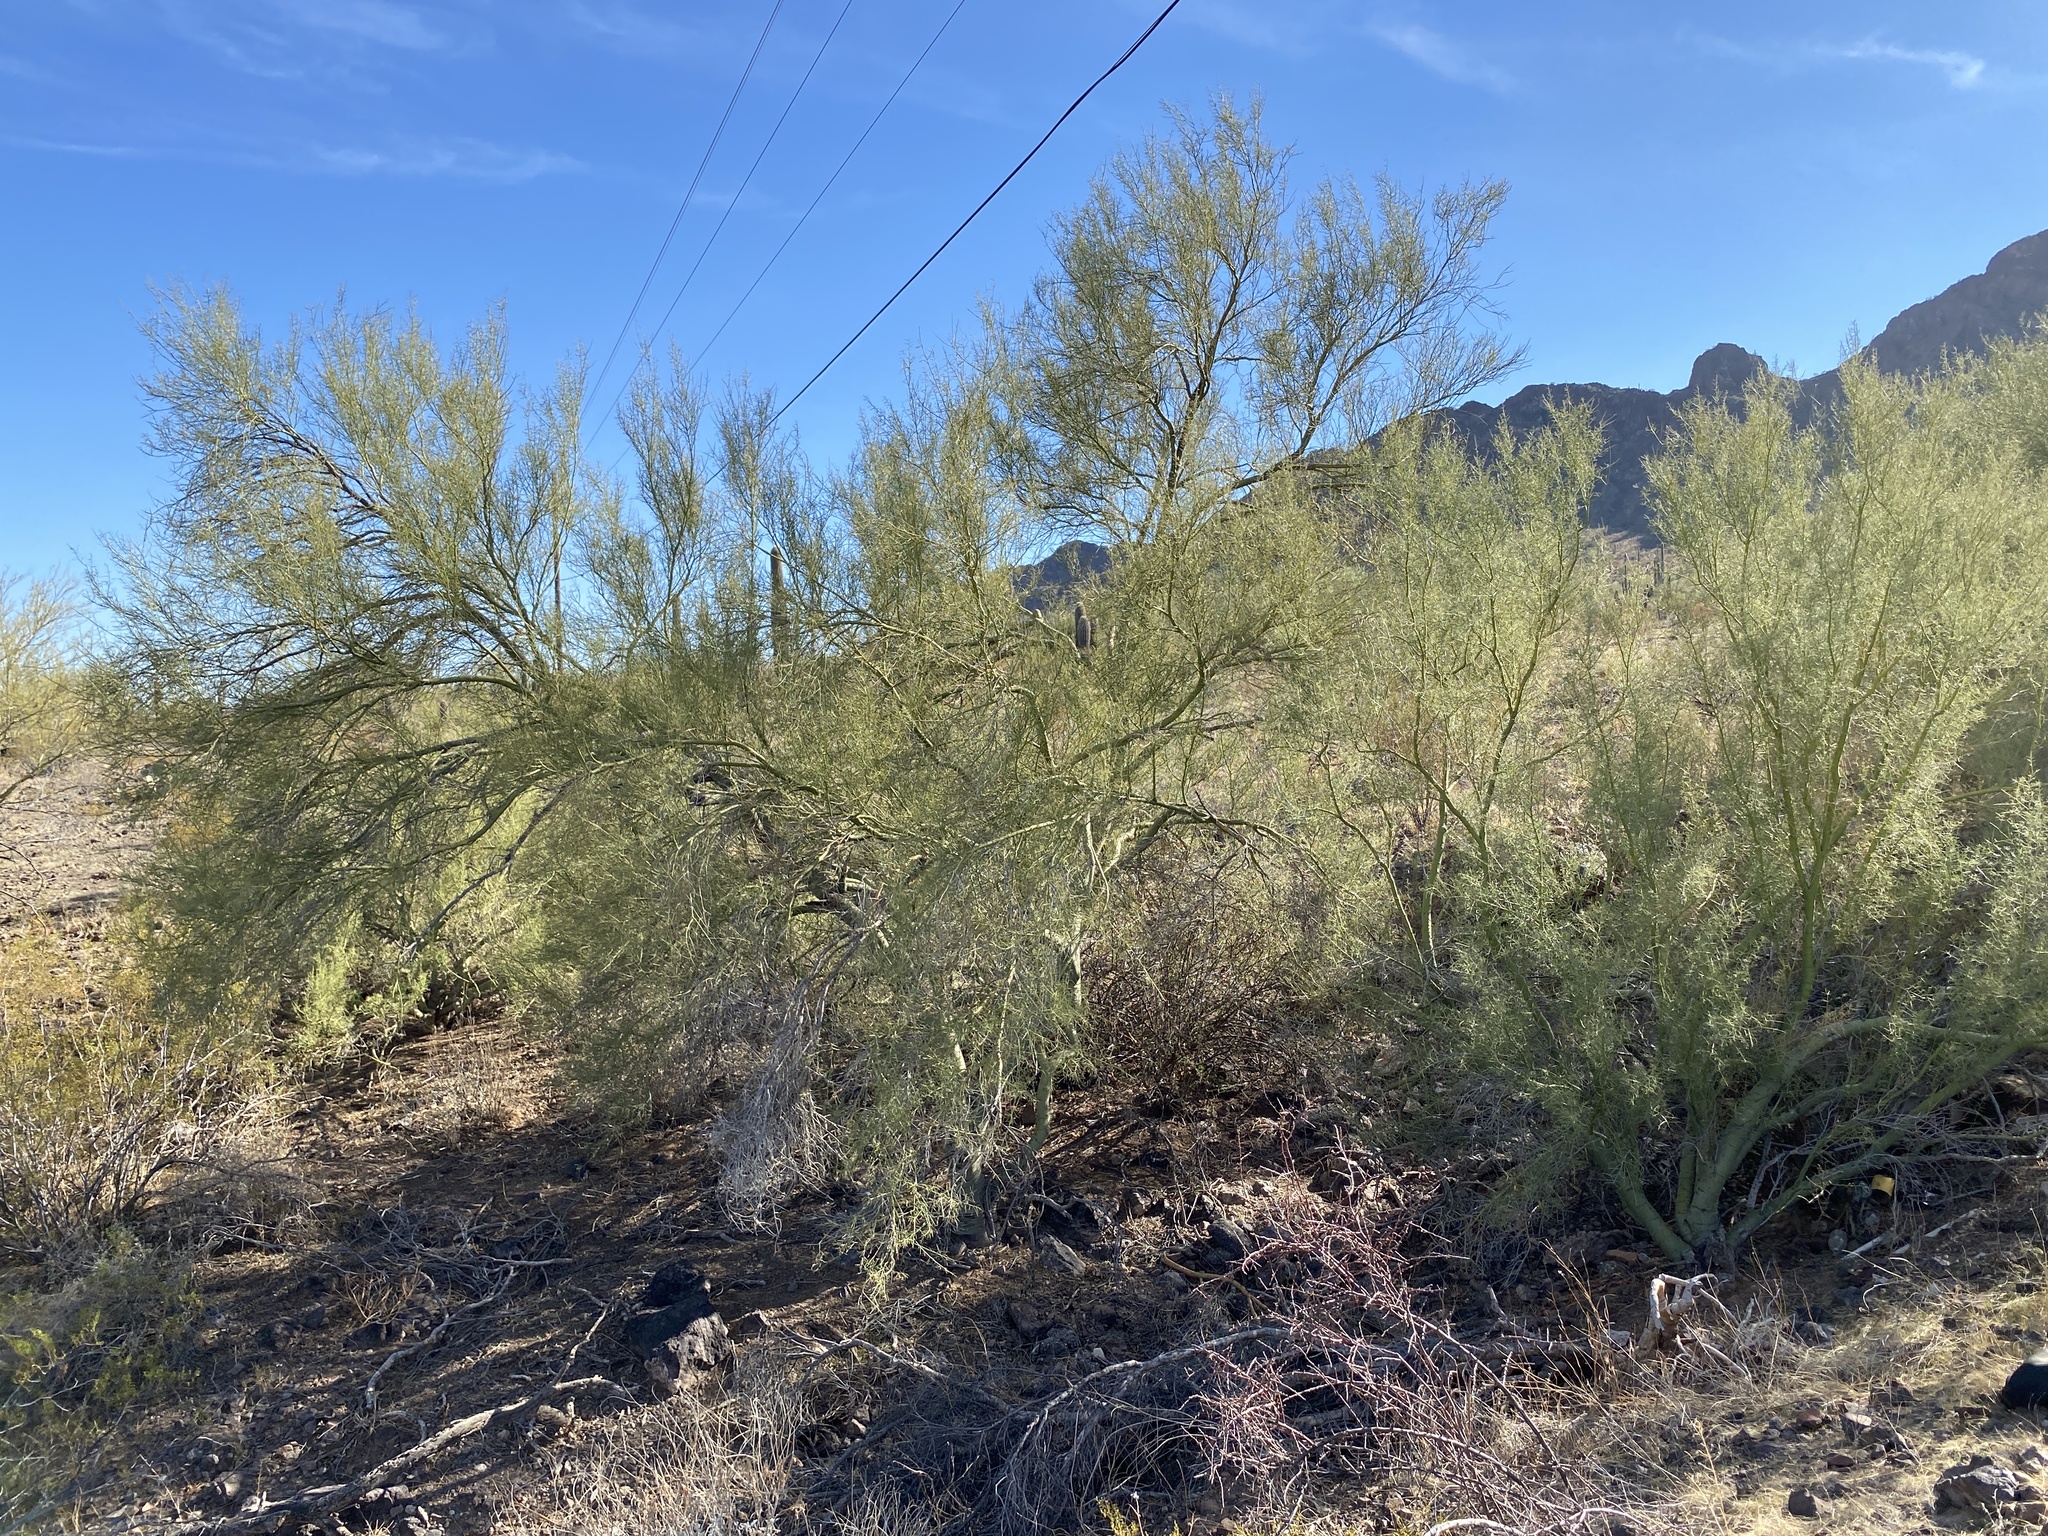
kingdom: Plantae
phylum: Tracheophyta
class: Magnoliopsida
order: Fabales
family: Fabaceae
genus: Parkinsonia
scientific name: Parkinsonia microphylla
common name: Yellow paloverde
